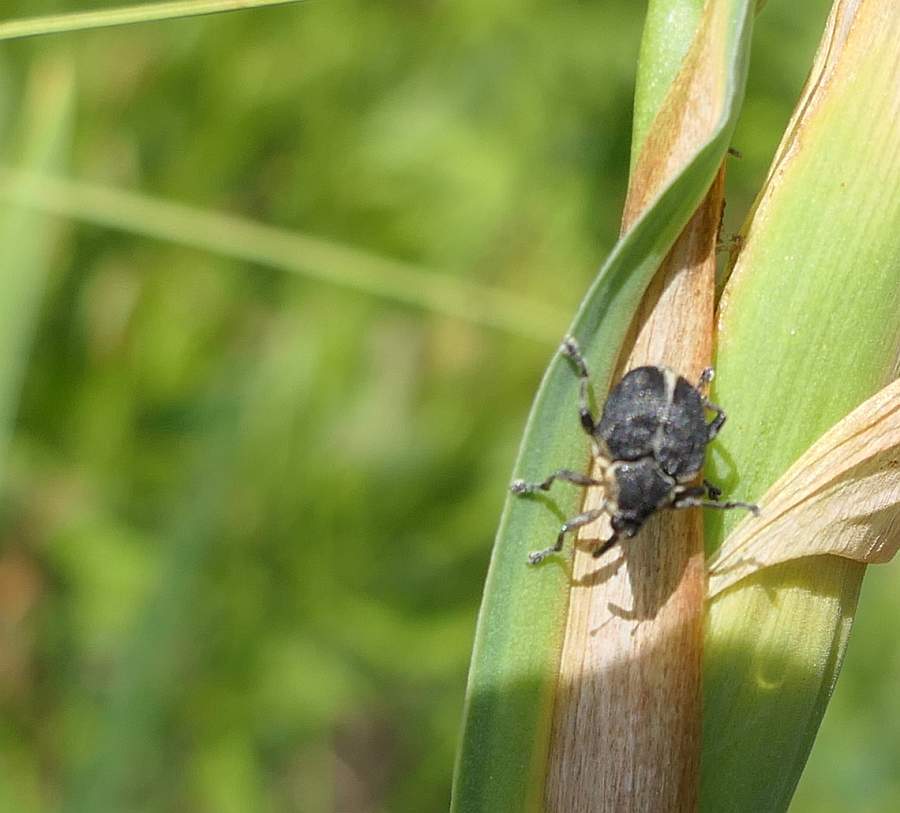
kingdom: Animalia
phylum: Arthropoda
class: Insecta
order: Coleoptera
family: Curculionidae
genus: Mononychus
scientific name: Mononychus vulpeculus
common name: Iris weevil
